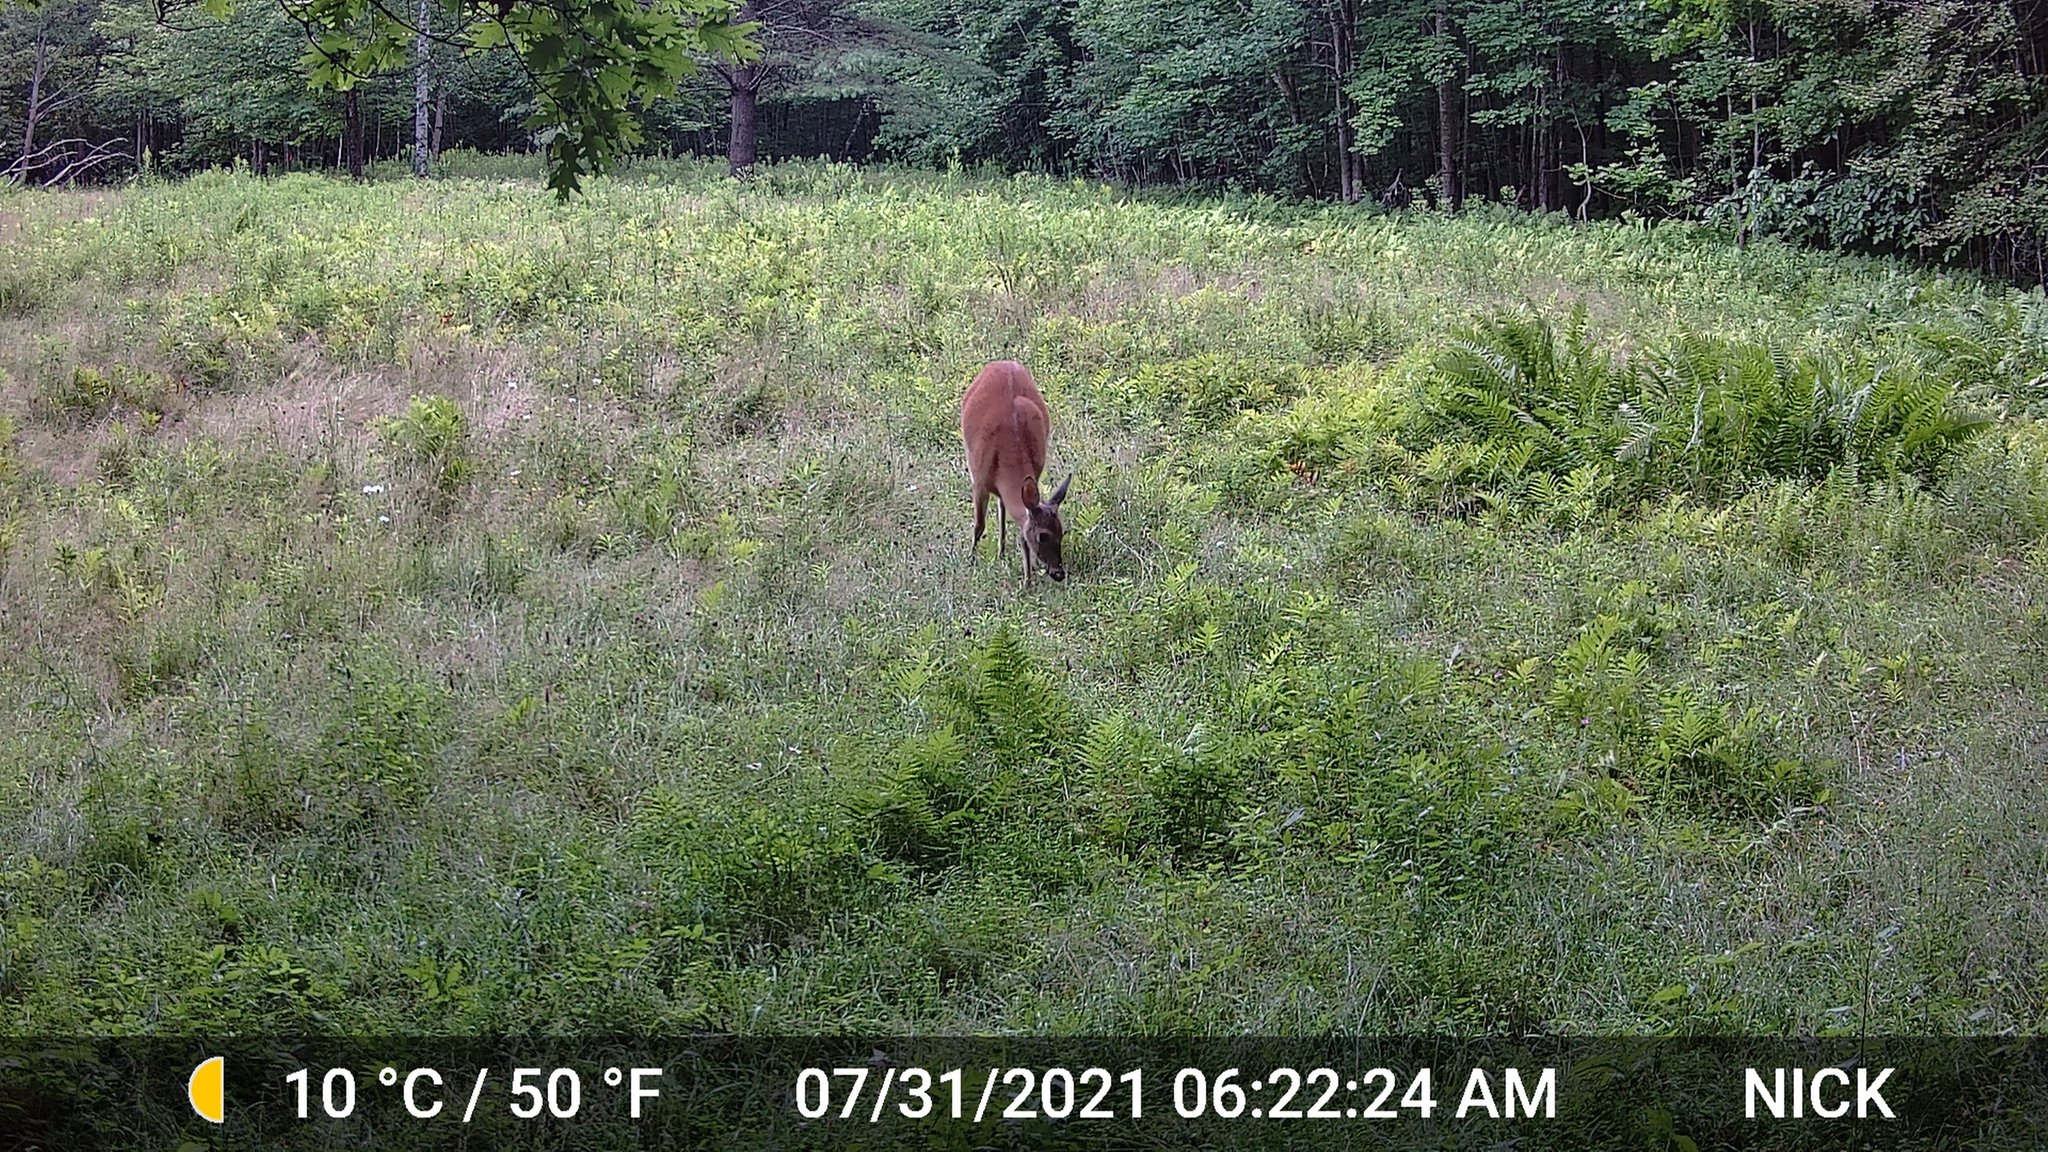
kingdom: Animalia
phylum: Chordata
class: Mammalia
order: Artiodactyla
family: Cervidae
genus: Odocoileus
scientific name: Odocoileus virginianus
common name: White-tailed deer
